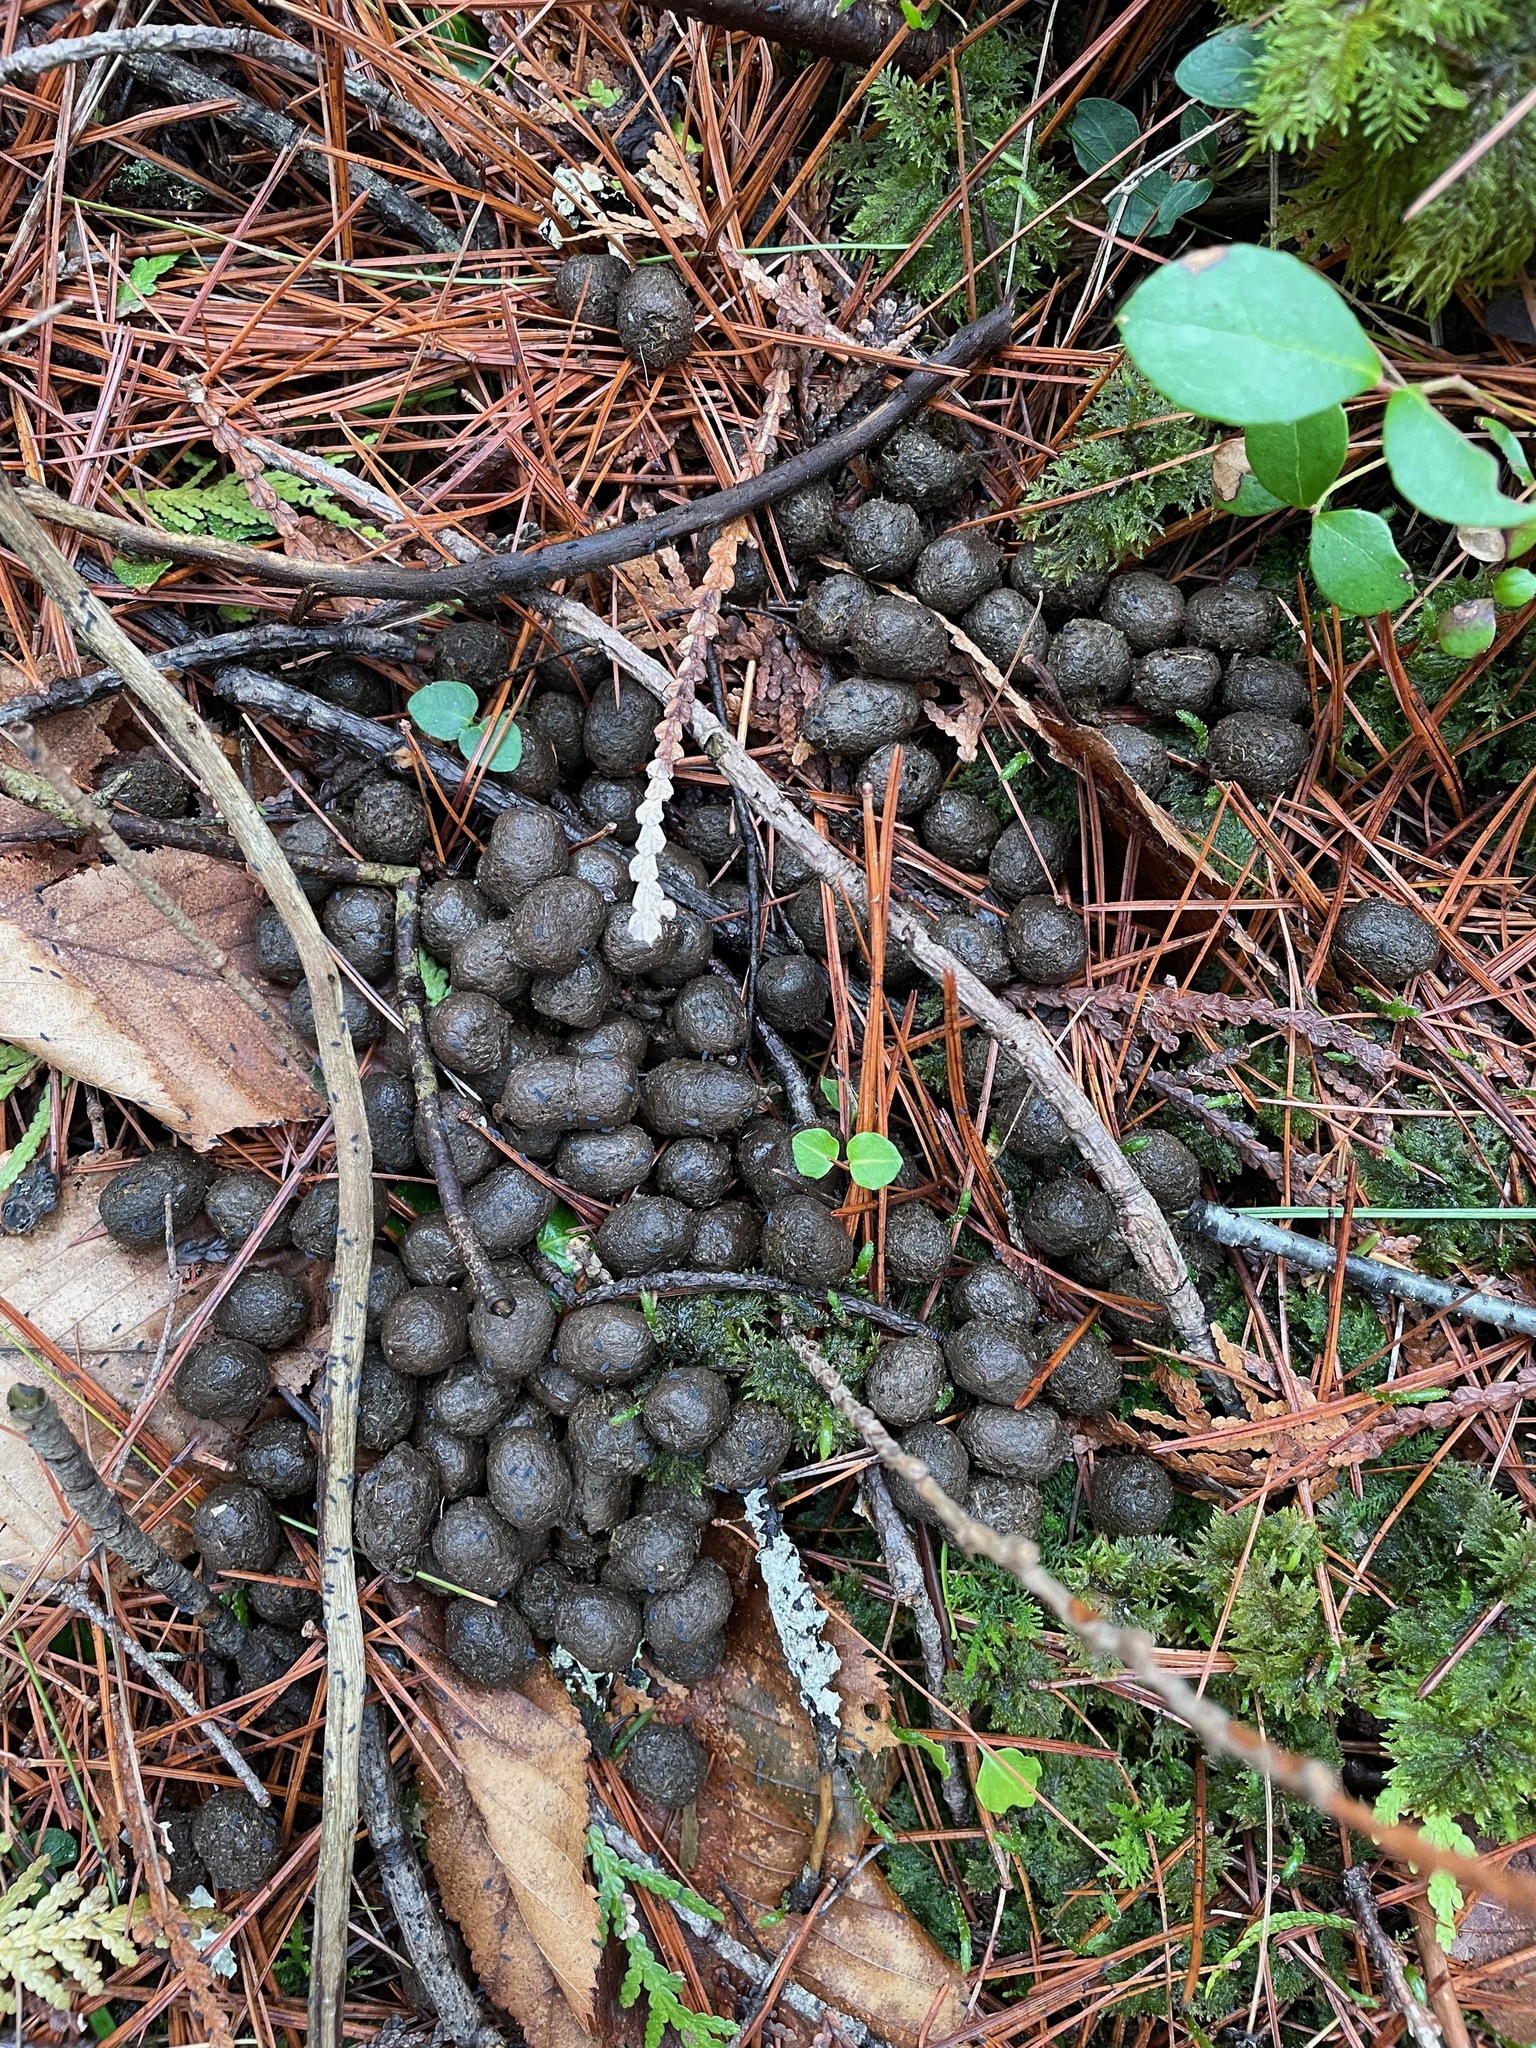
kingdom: Animalia
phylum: Chordata
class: Mammalia
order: Artiodactyla
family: Cervidae
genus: Odocoileus
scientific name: Odocoileus virginianus
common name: White-tailed deer
